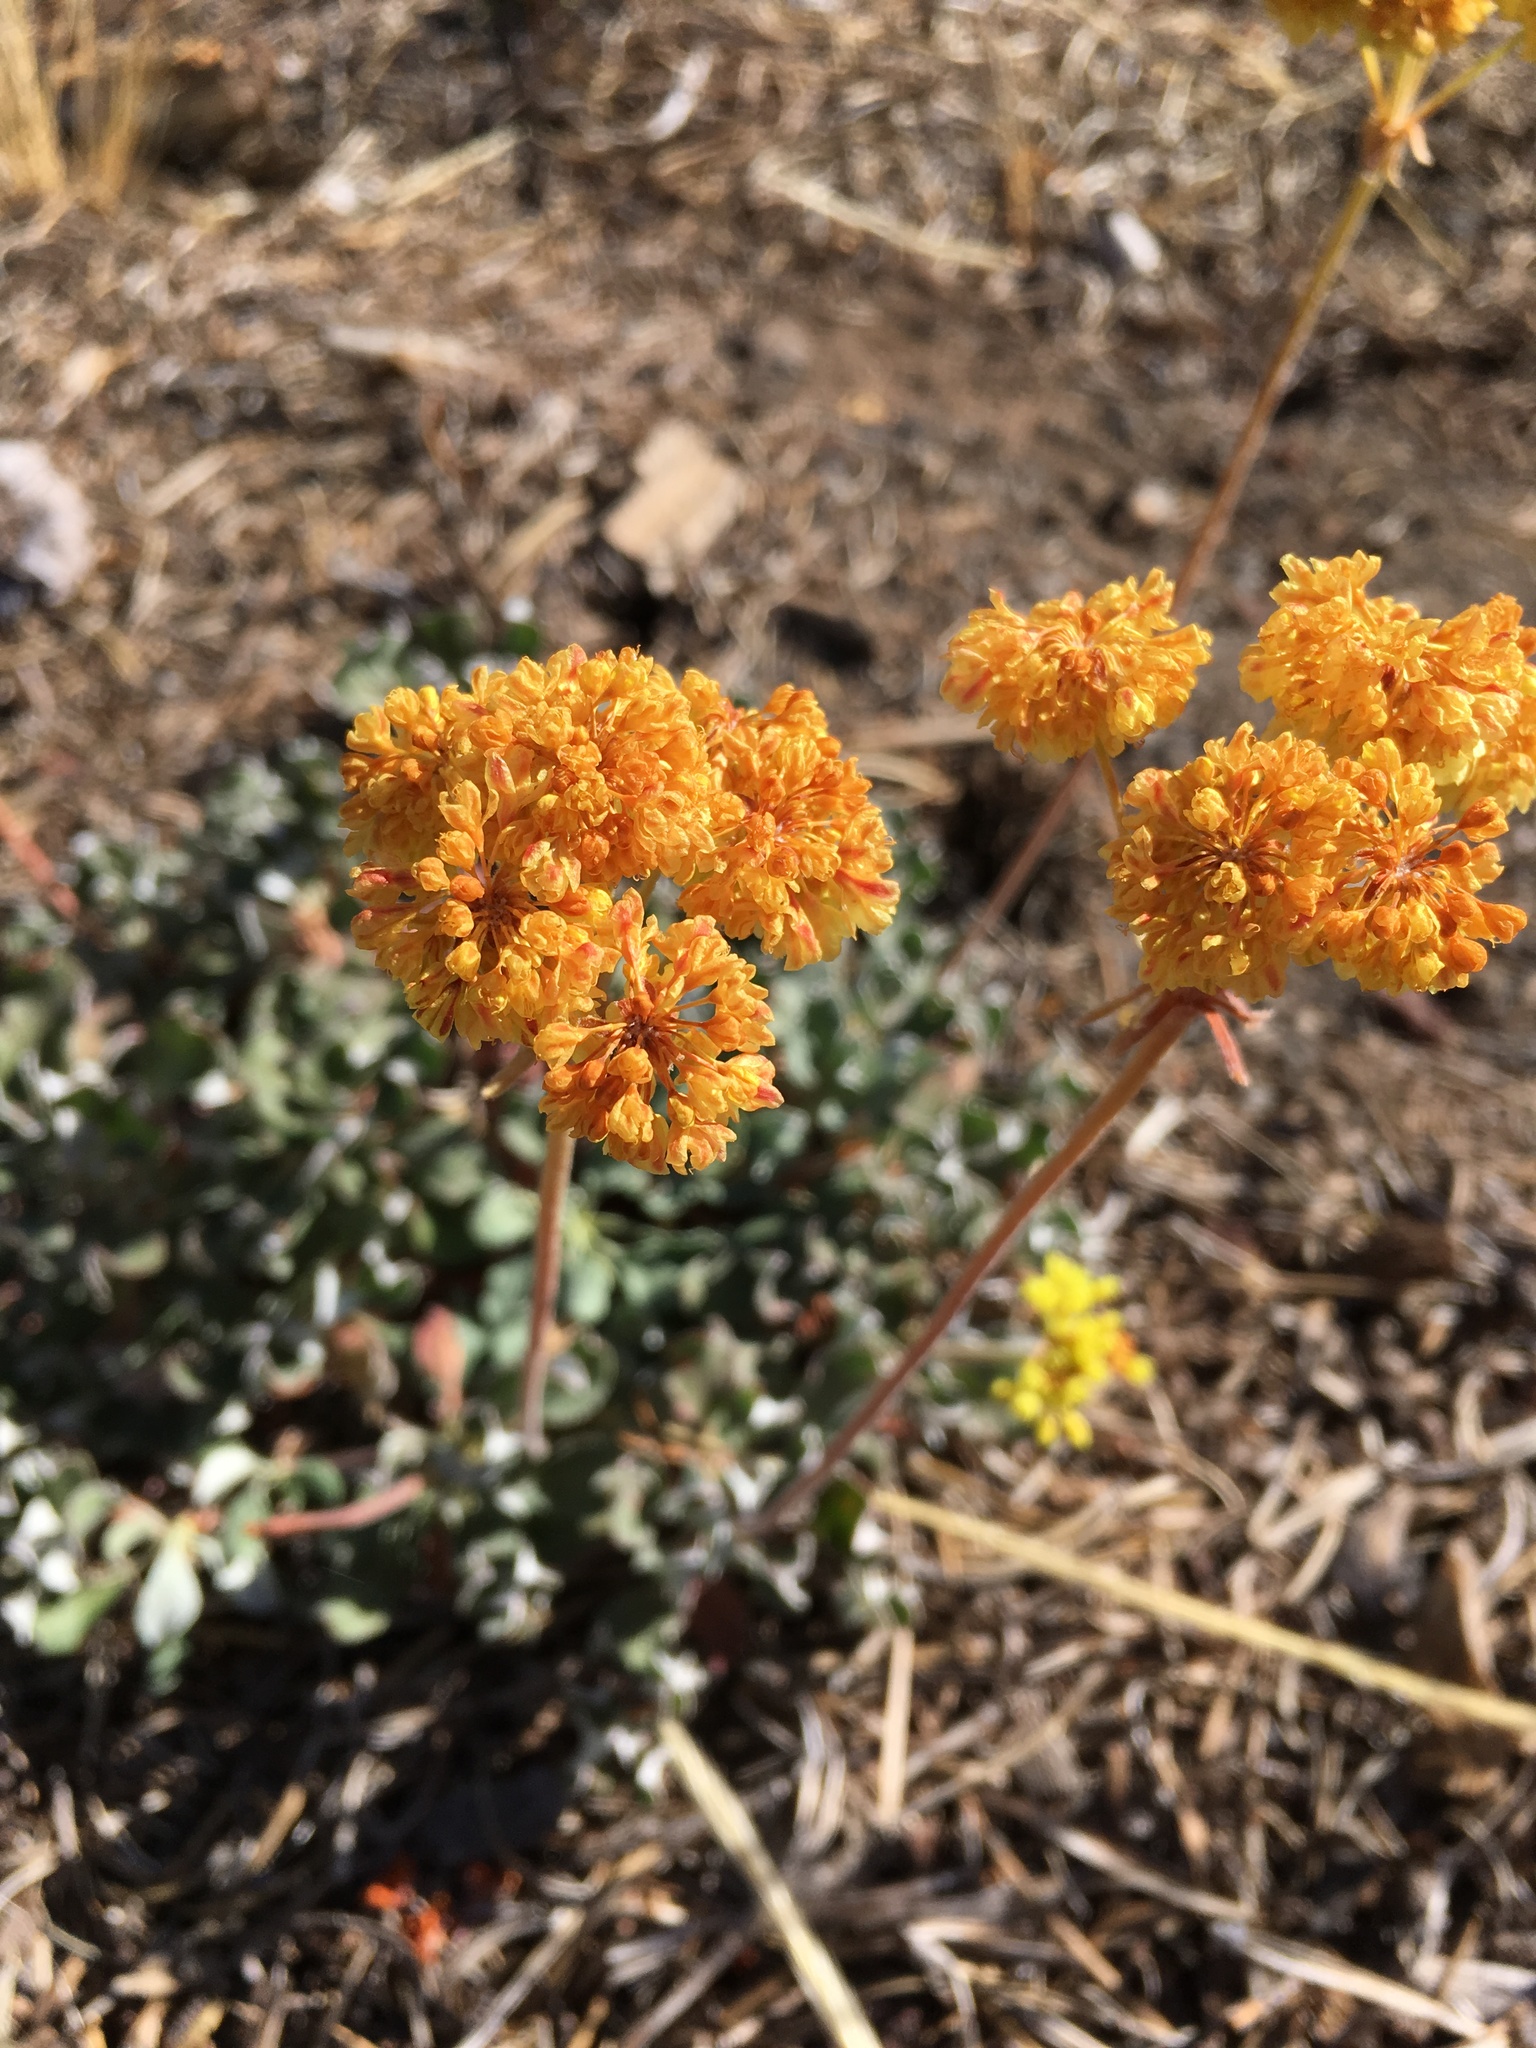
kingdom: Plantae
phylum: Tracheophyta
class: Magnoliopsida
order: Caryophyllales
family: Polygonaceae
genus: Eriogonum
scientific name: Eriogonum umbellatum
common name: Sulfur-buckwheat
